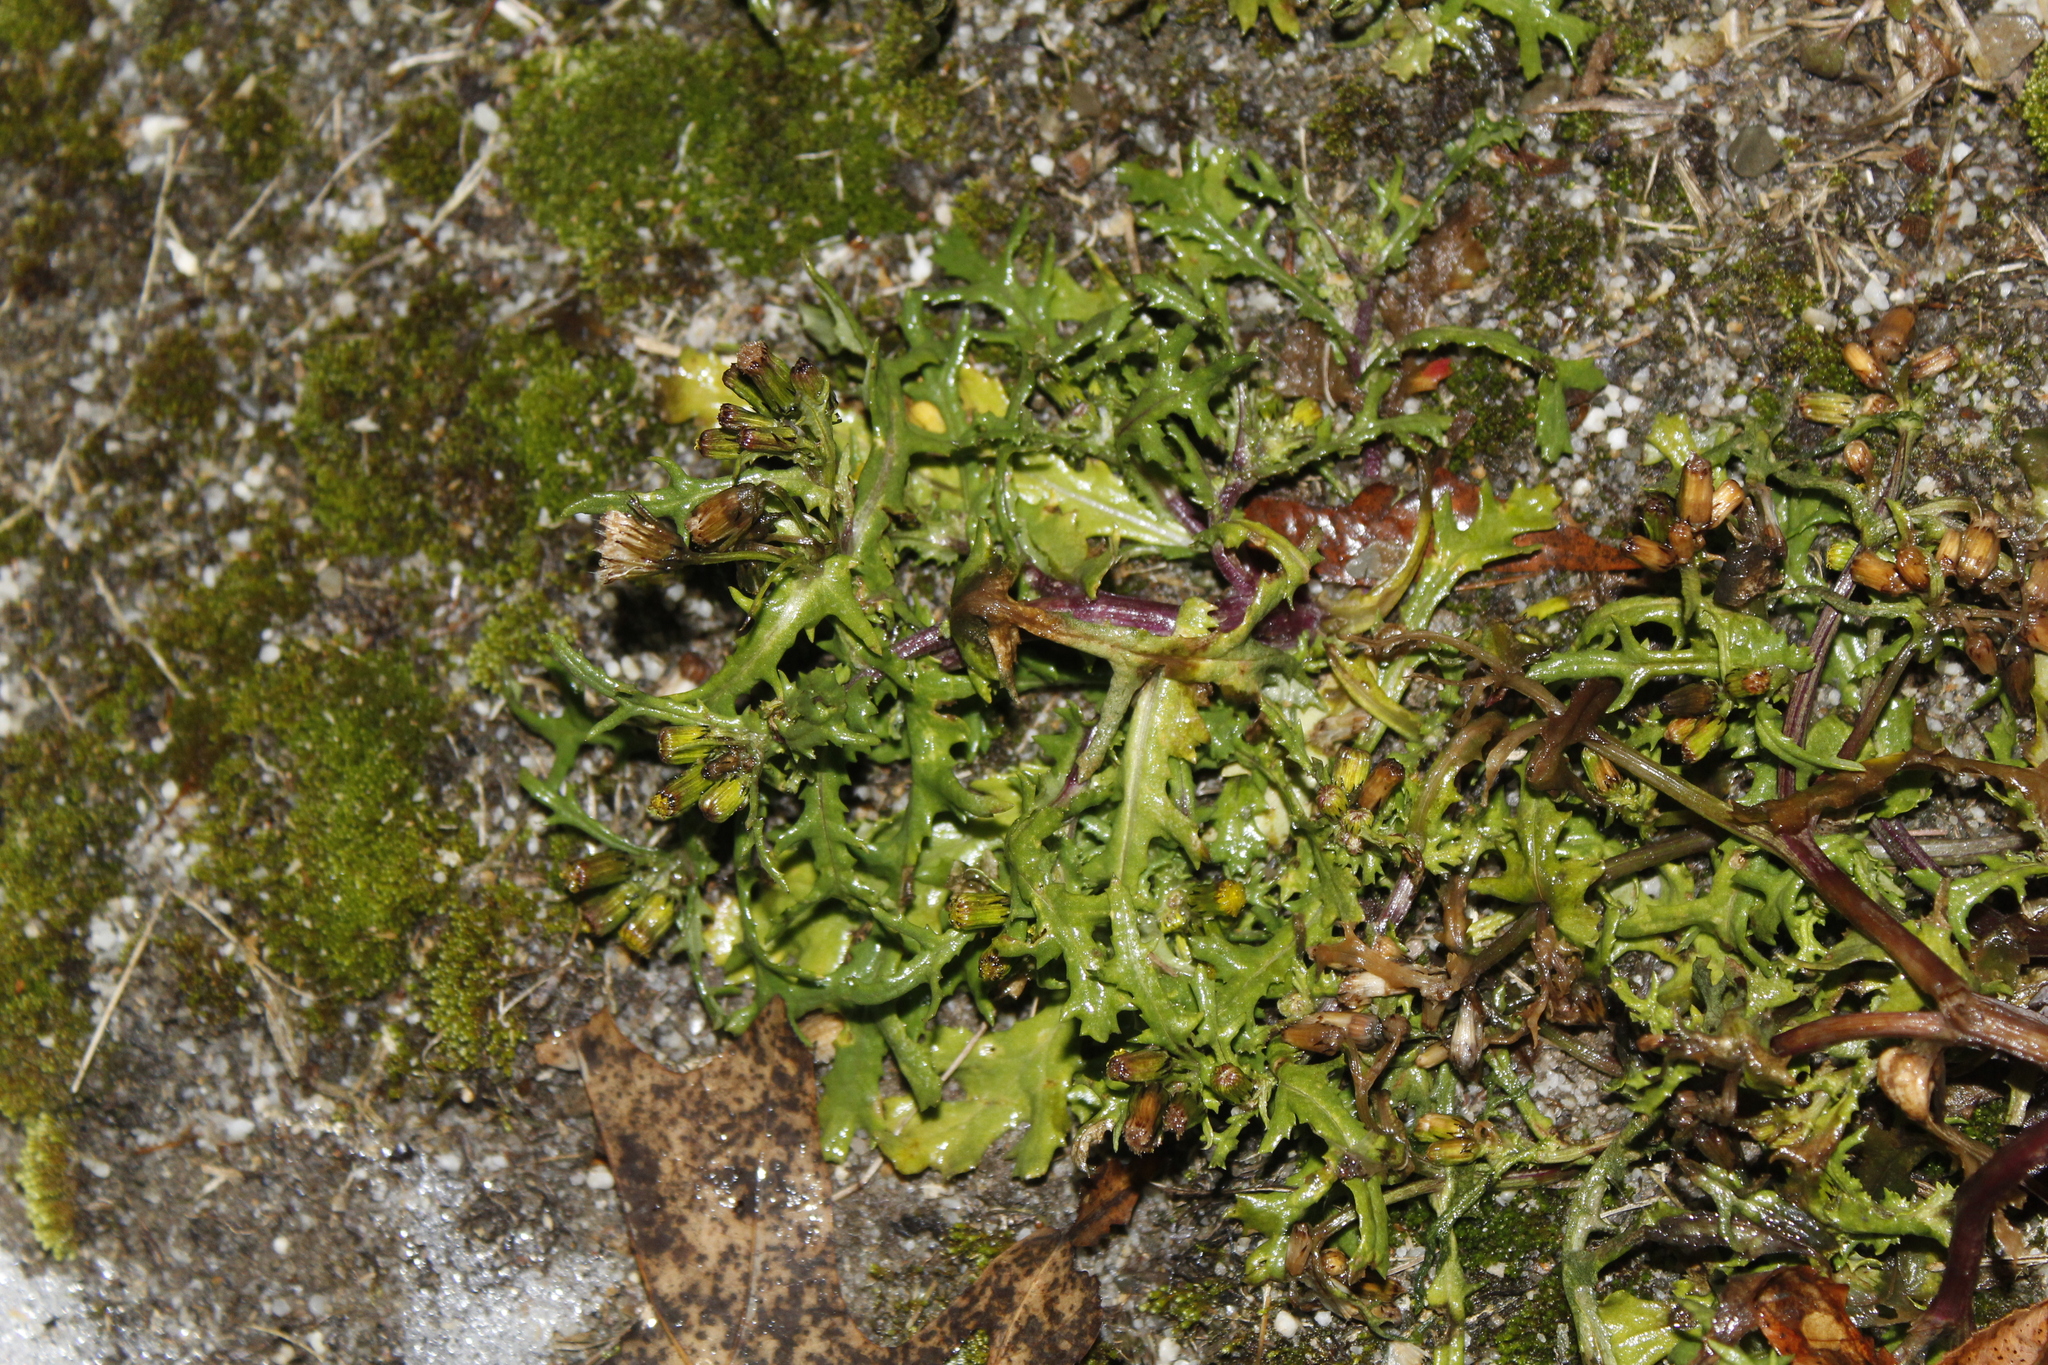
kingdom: Plantae
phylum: Tracheophyta
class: Magnoliopsida
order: Asterales
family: Asteraceae
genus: Senecio
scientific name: Senecio vulgaris
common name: Old-man-in-the-spring
